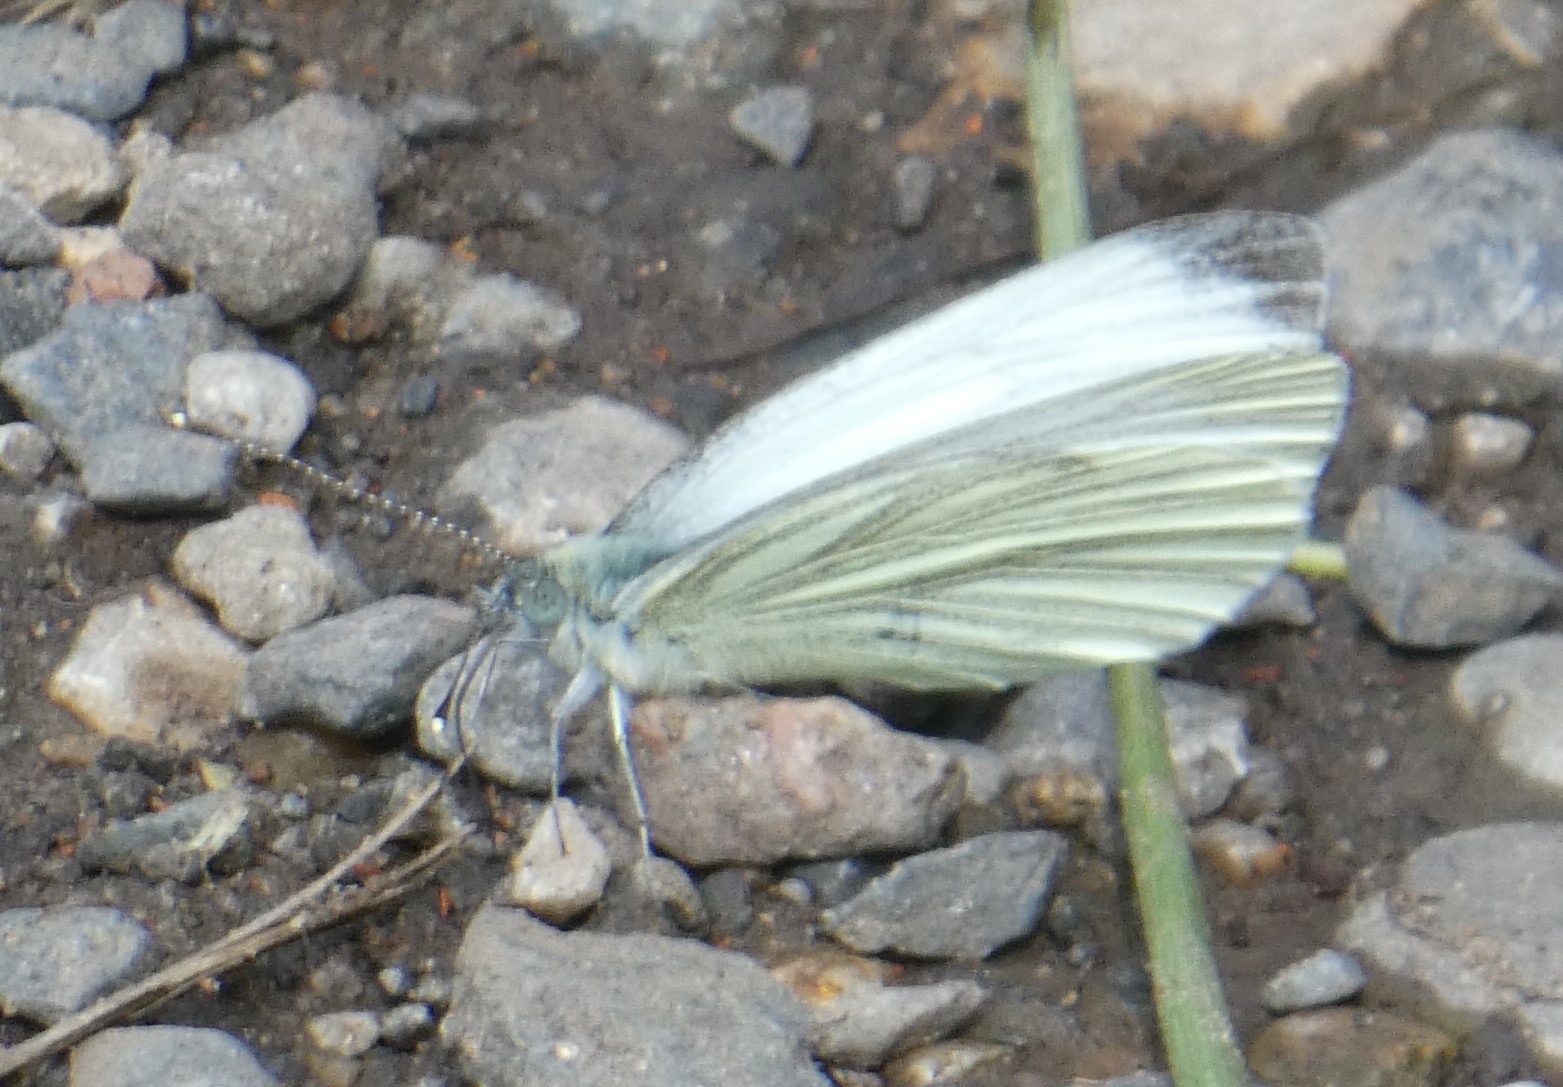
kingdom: Animalia
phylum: Arthropoda
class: Insecta
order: Lepidoptera
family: Pieridae
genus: Pieris
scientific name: Pieris napi
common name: Green-veined white
